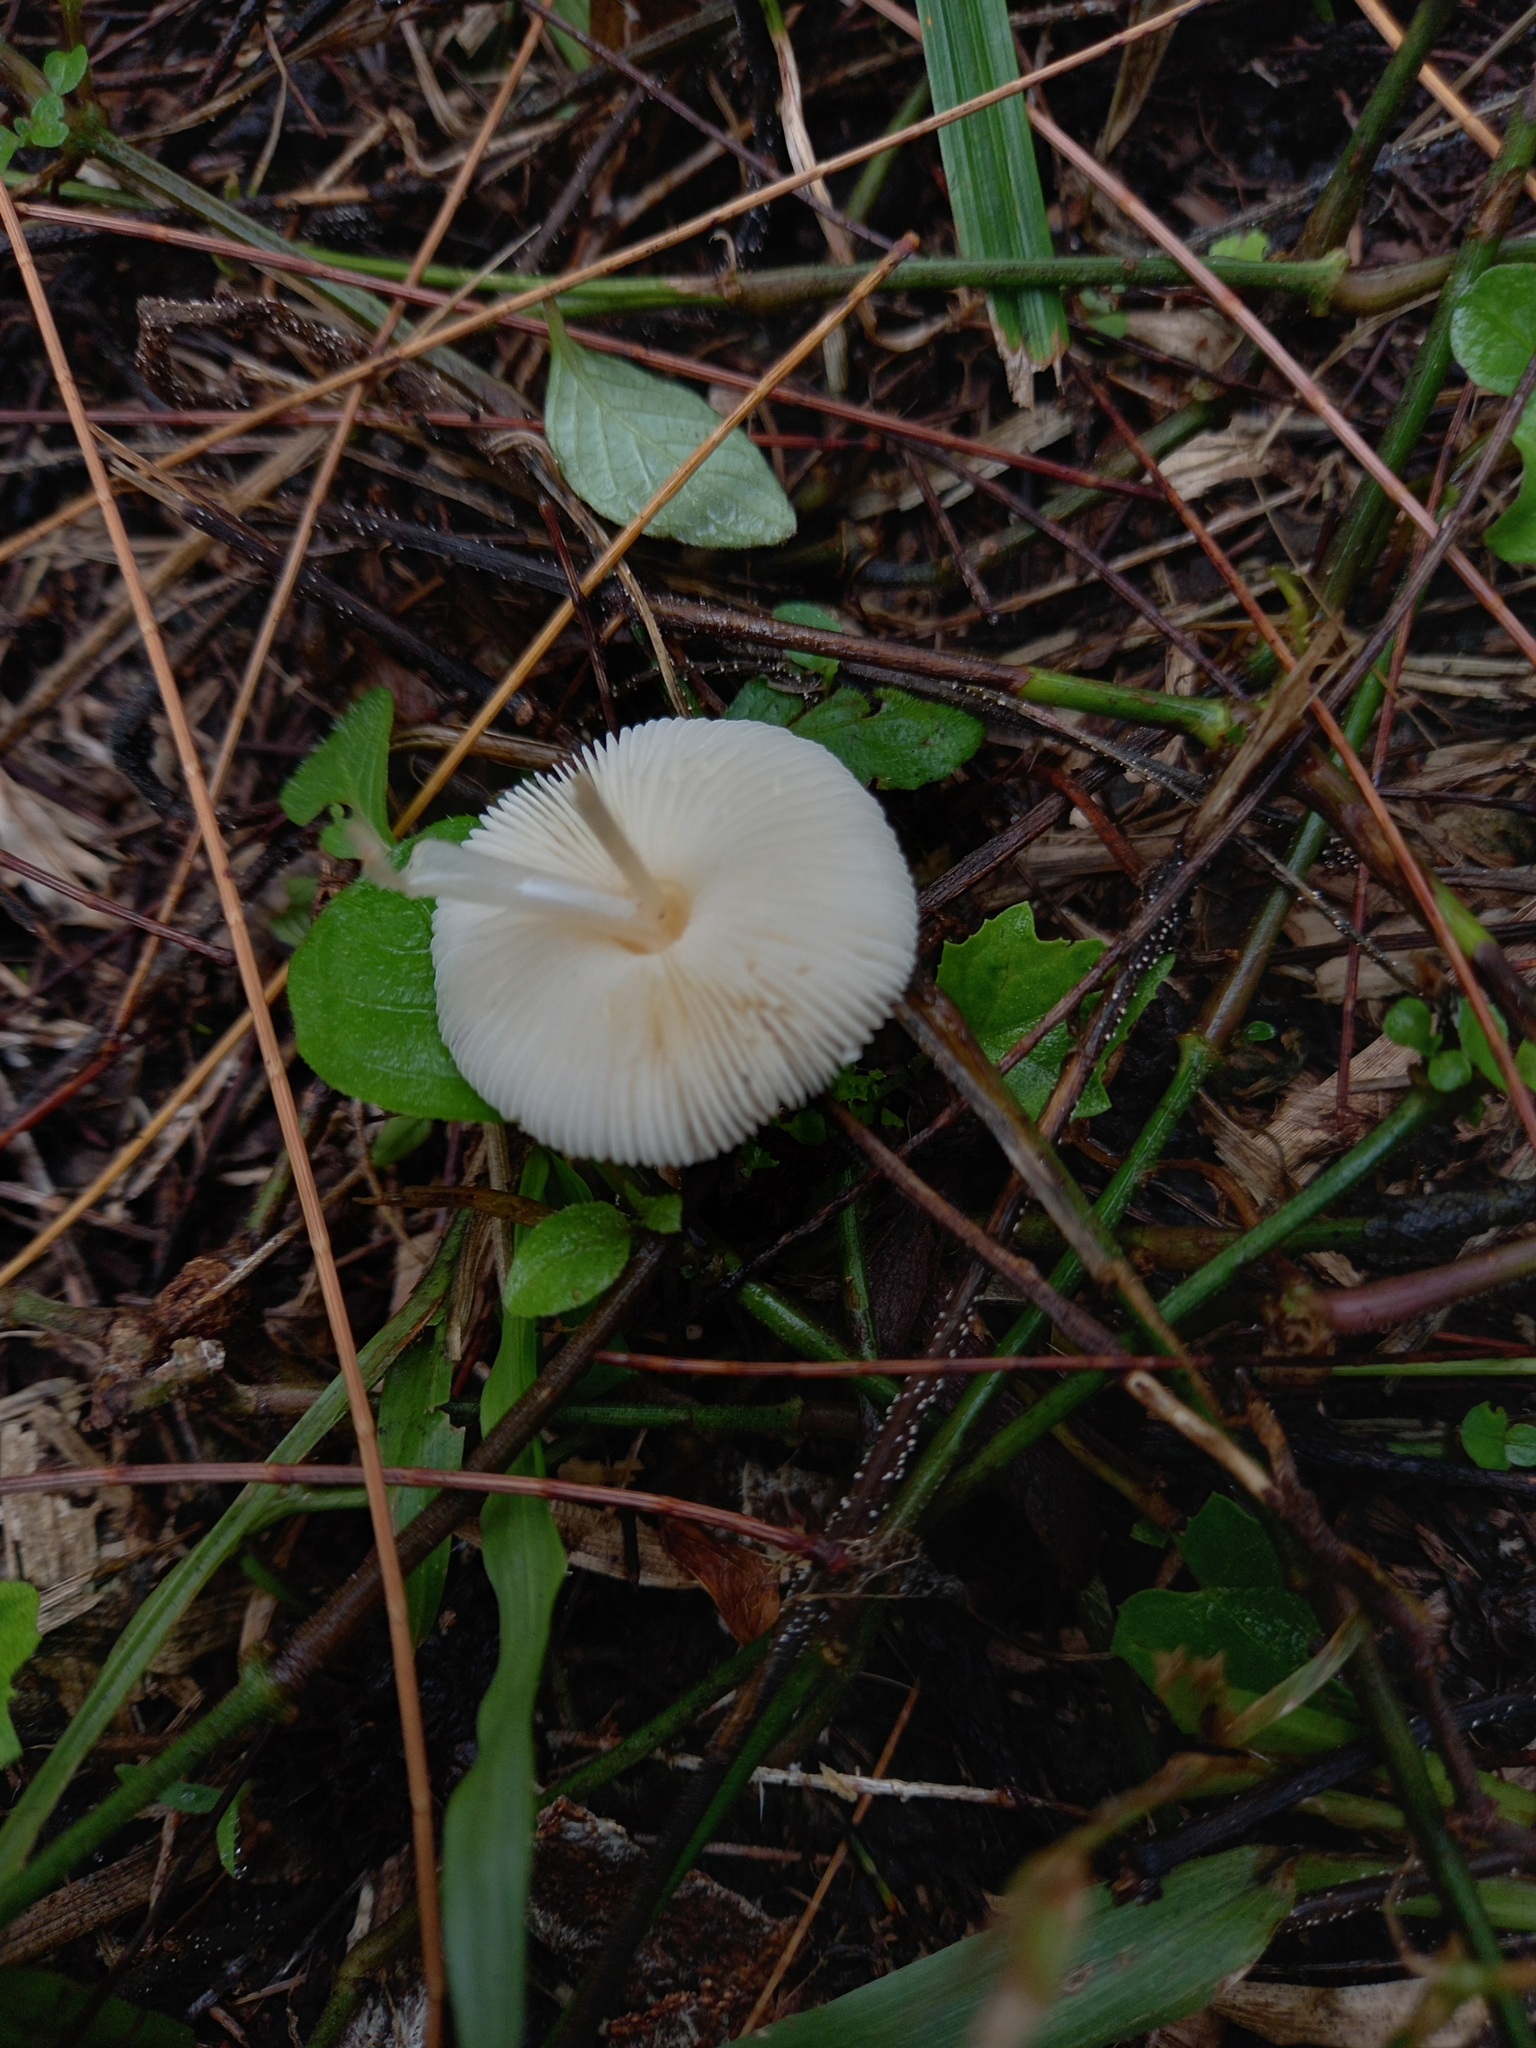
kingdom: Fungi
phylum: Basidiomycota
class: Agaricomycetes
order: Agaricales
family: Agaricaceae
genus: Leucoagaricus
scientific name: Leucoagaricus rubrotinctus
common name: Ruby dapperling
